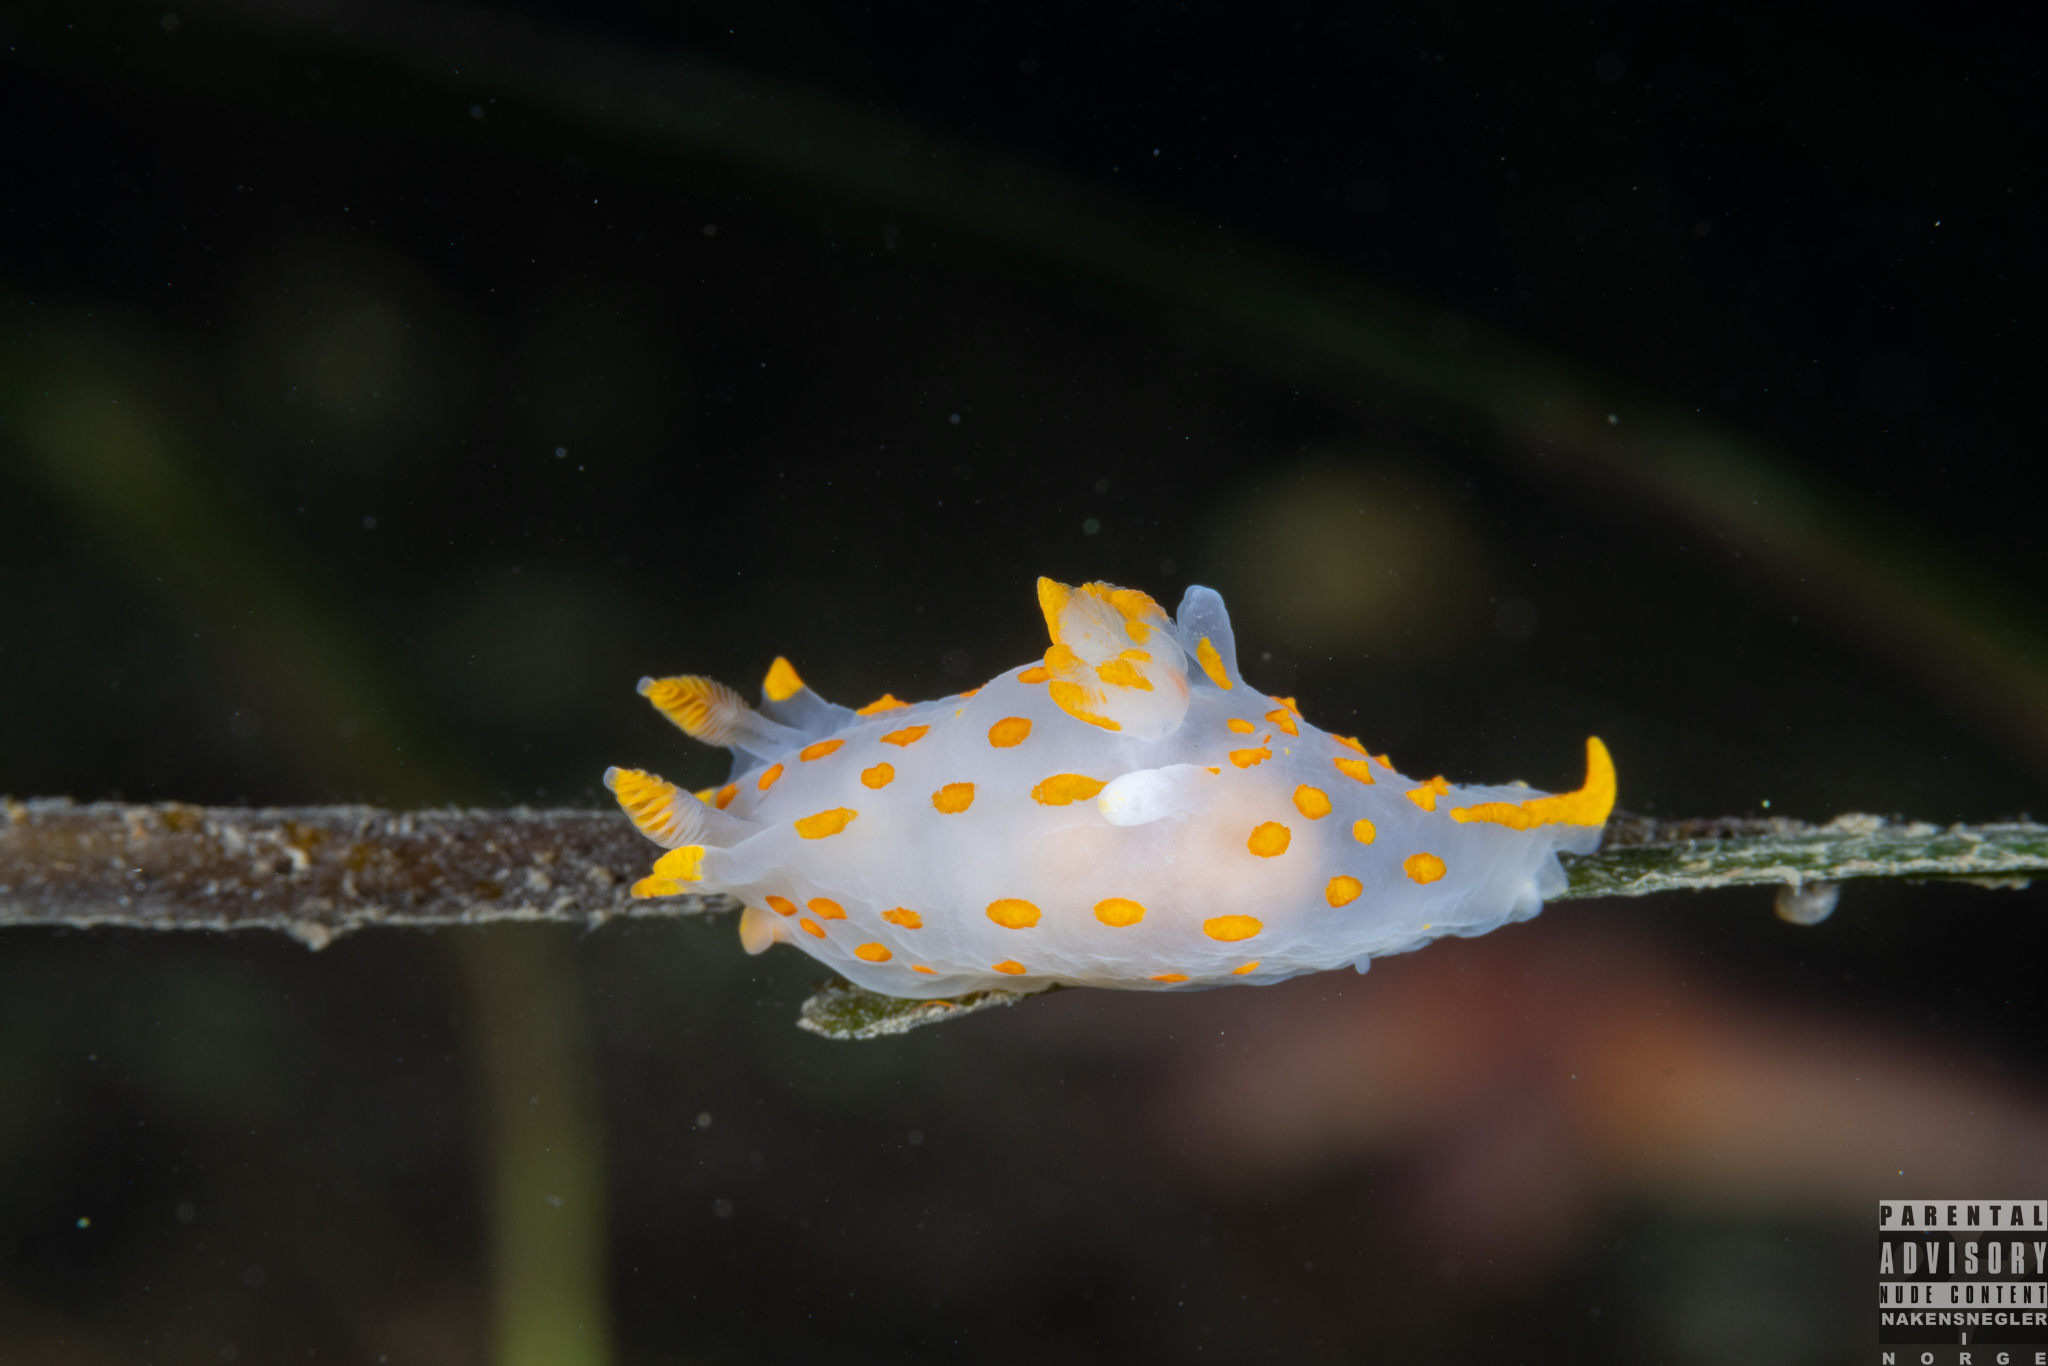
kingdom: Animalia
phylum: Mollusca
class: Gastropoda
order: Nudibranchia
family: Polyceridae
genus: Polycera
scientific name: Polycera quadrilineata
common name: Four-striped polycera
